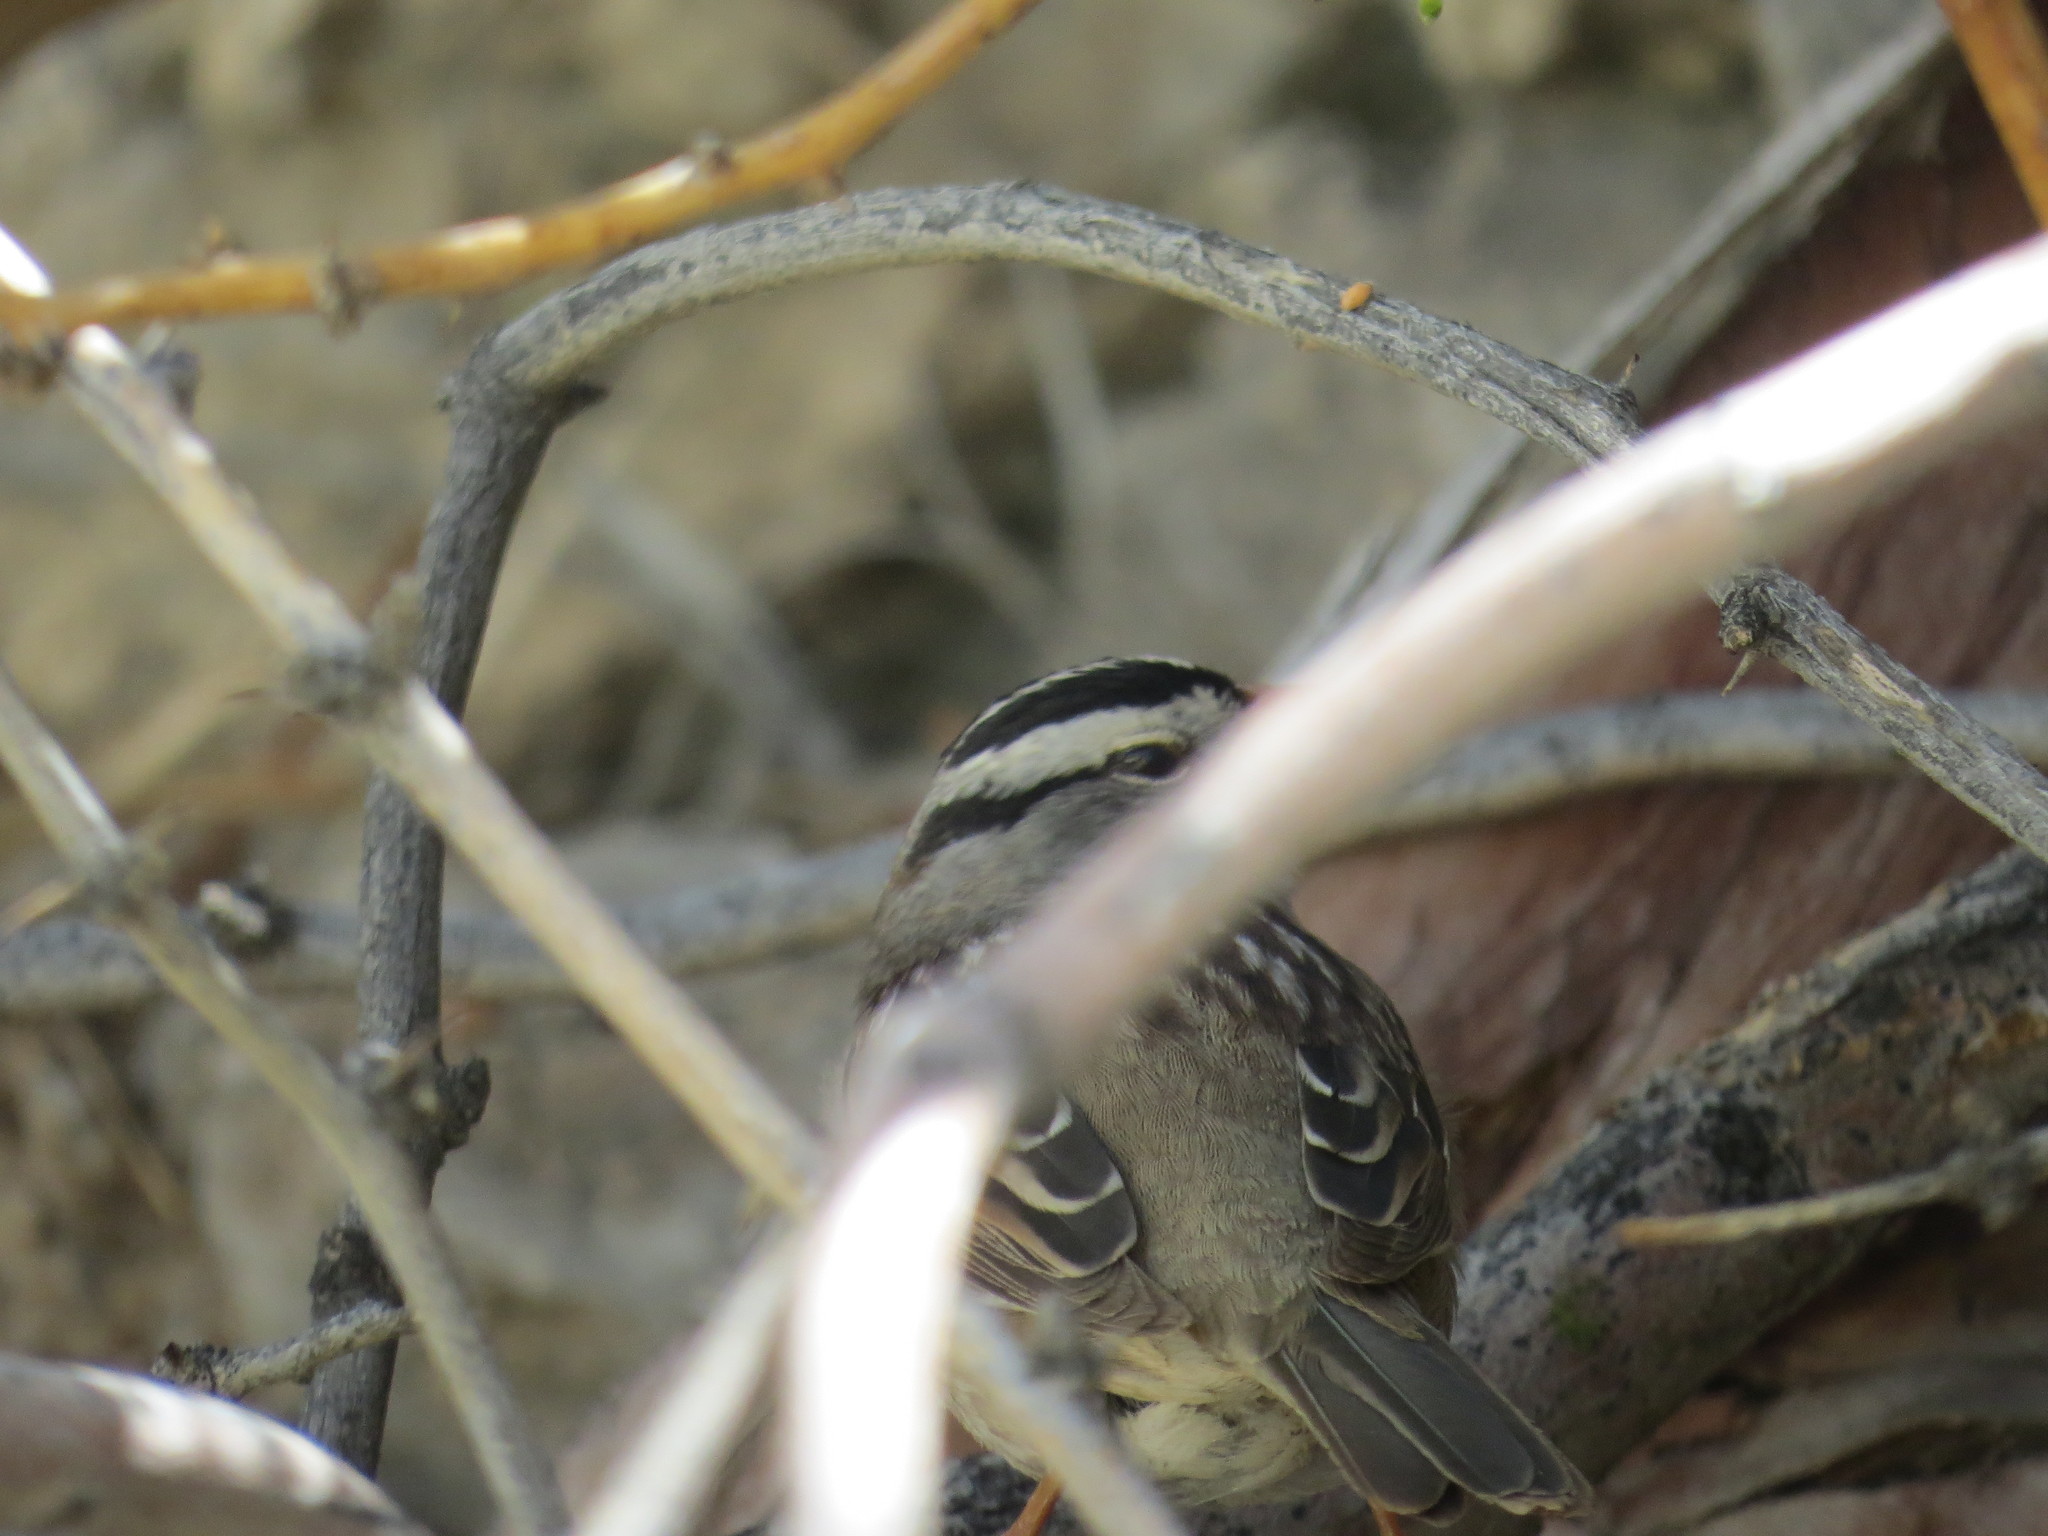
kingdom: Animalia
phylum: Chordata
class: Aves
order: Passeriformes
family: Passerellidae
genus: Zonotrichia
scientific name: Zonotrichia leucophrys
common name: White-crowned sparrow
